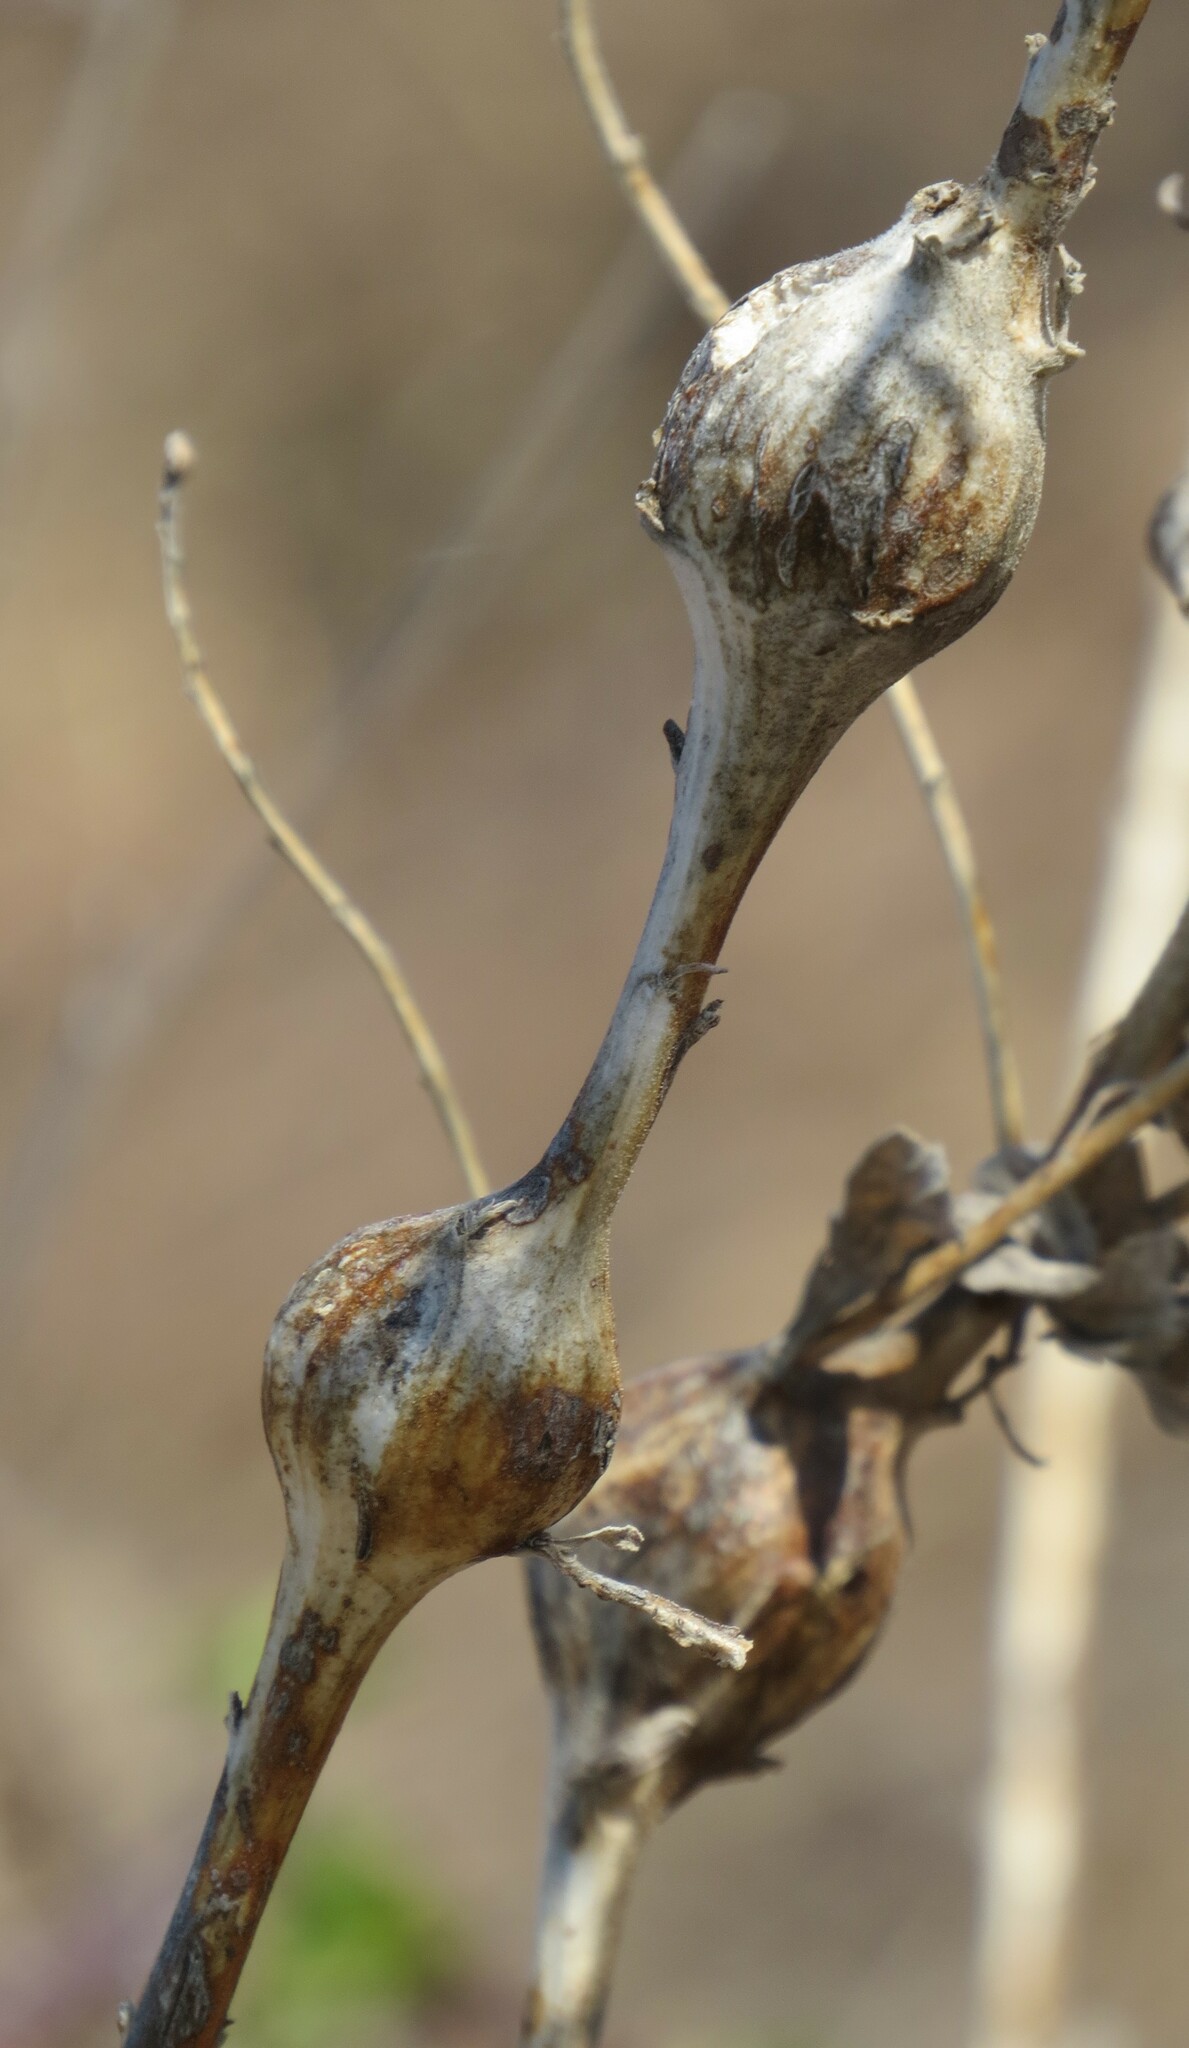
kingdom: Animalia
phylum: Arthropoda
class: Insecta
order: Diptera
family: Tephritidae
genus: Eurosta
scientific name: Eurosta solidaginis
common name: Goldenrod gall fly
